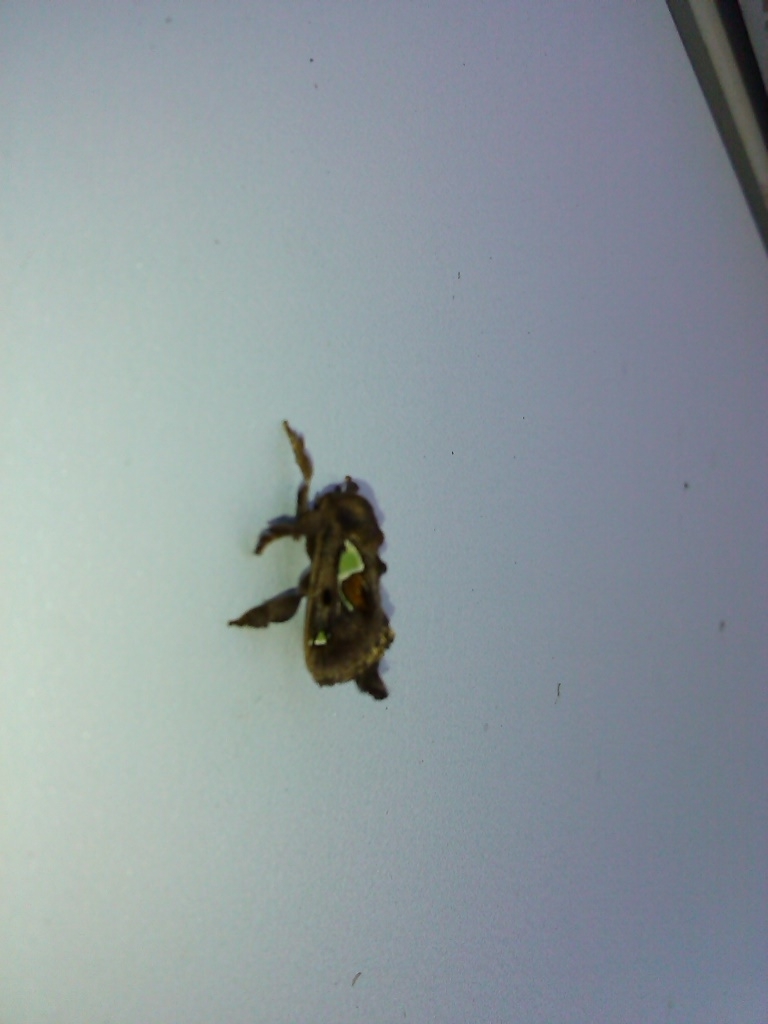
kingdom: Animalia
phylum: Arthropoda
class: Insecta
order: Lepidoptera
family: Limacodidae
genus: Euclea
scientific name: Euclea delphinii
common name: Spiny oak-slug moth
